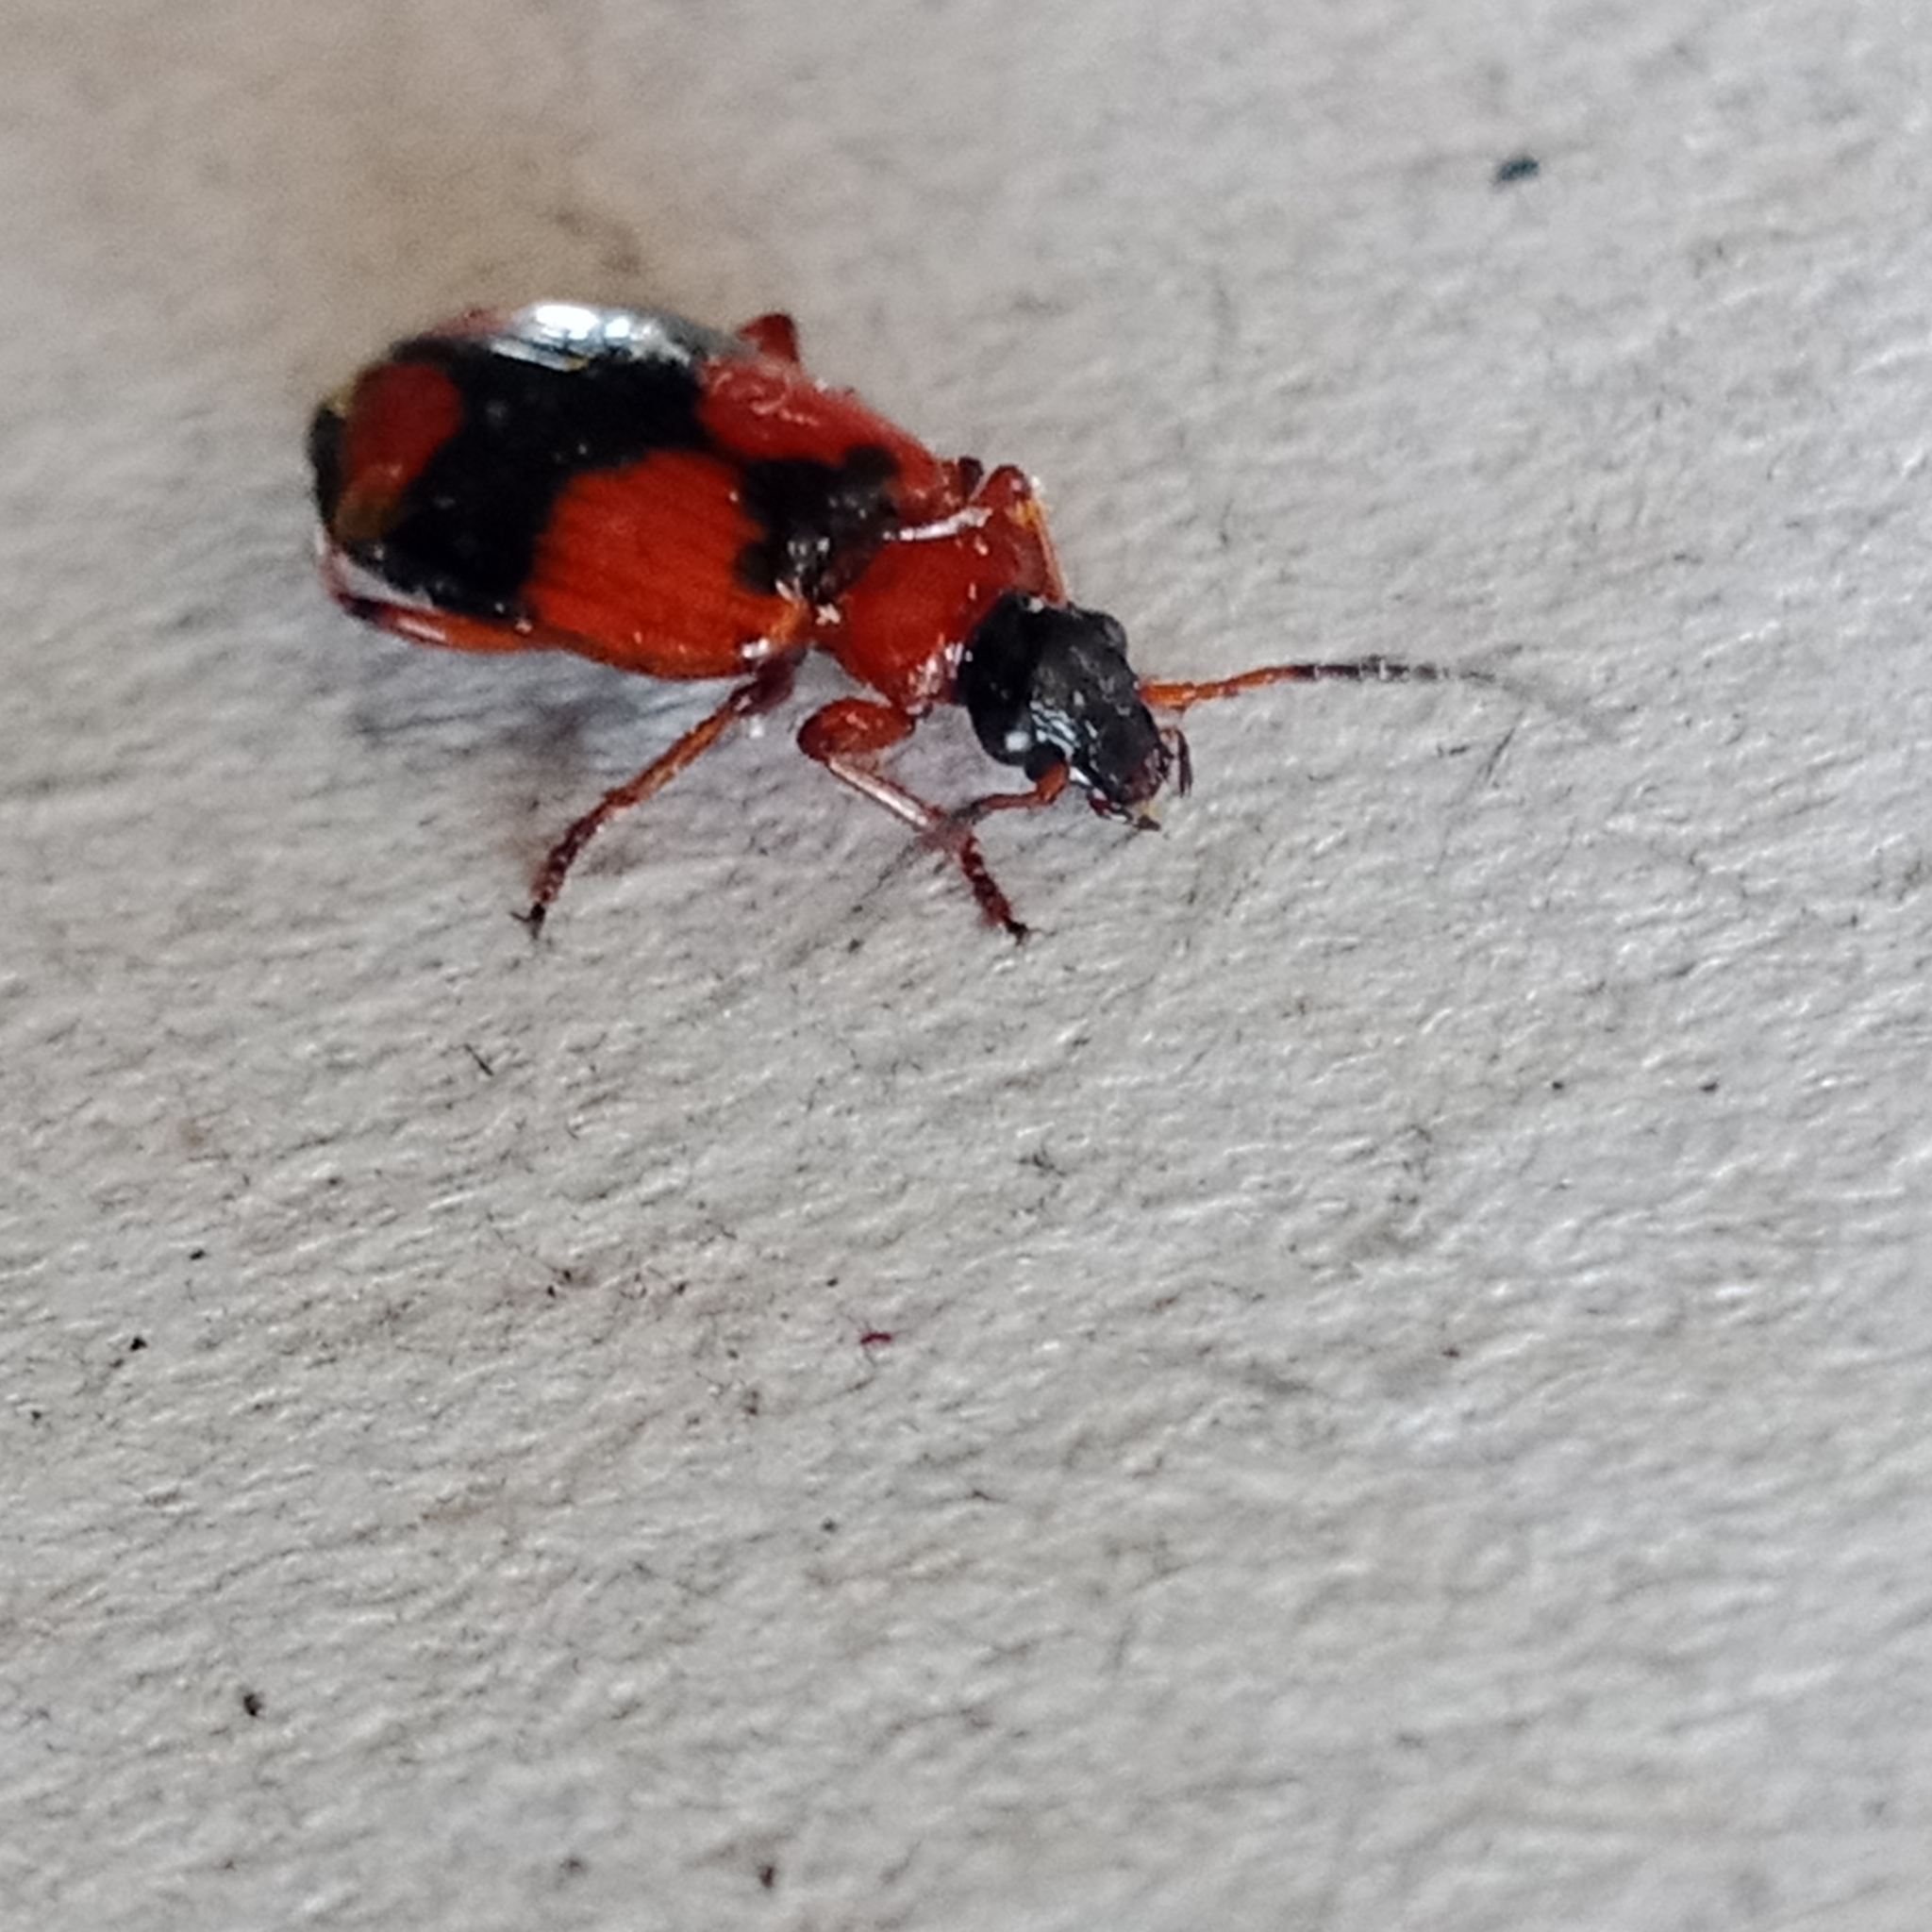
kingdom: Animalia
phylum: Arthropoda
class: Insecta
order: Coleoptera
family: Carabidae
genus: Lebia
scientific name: Lebia cruxminor
